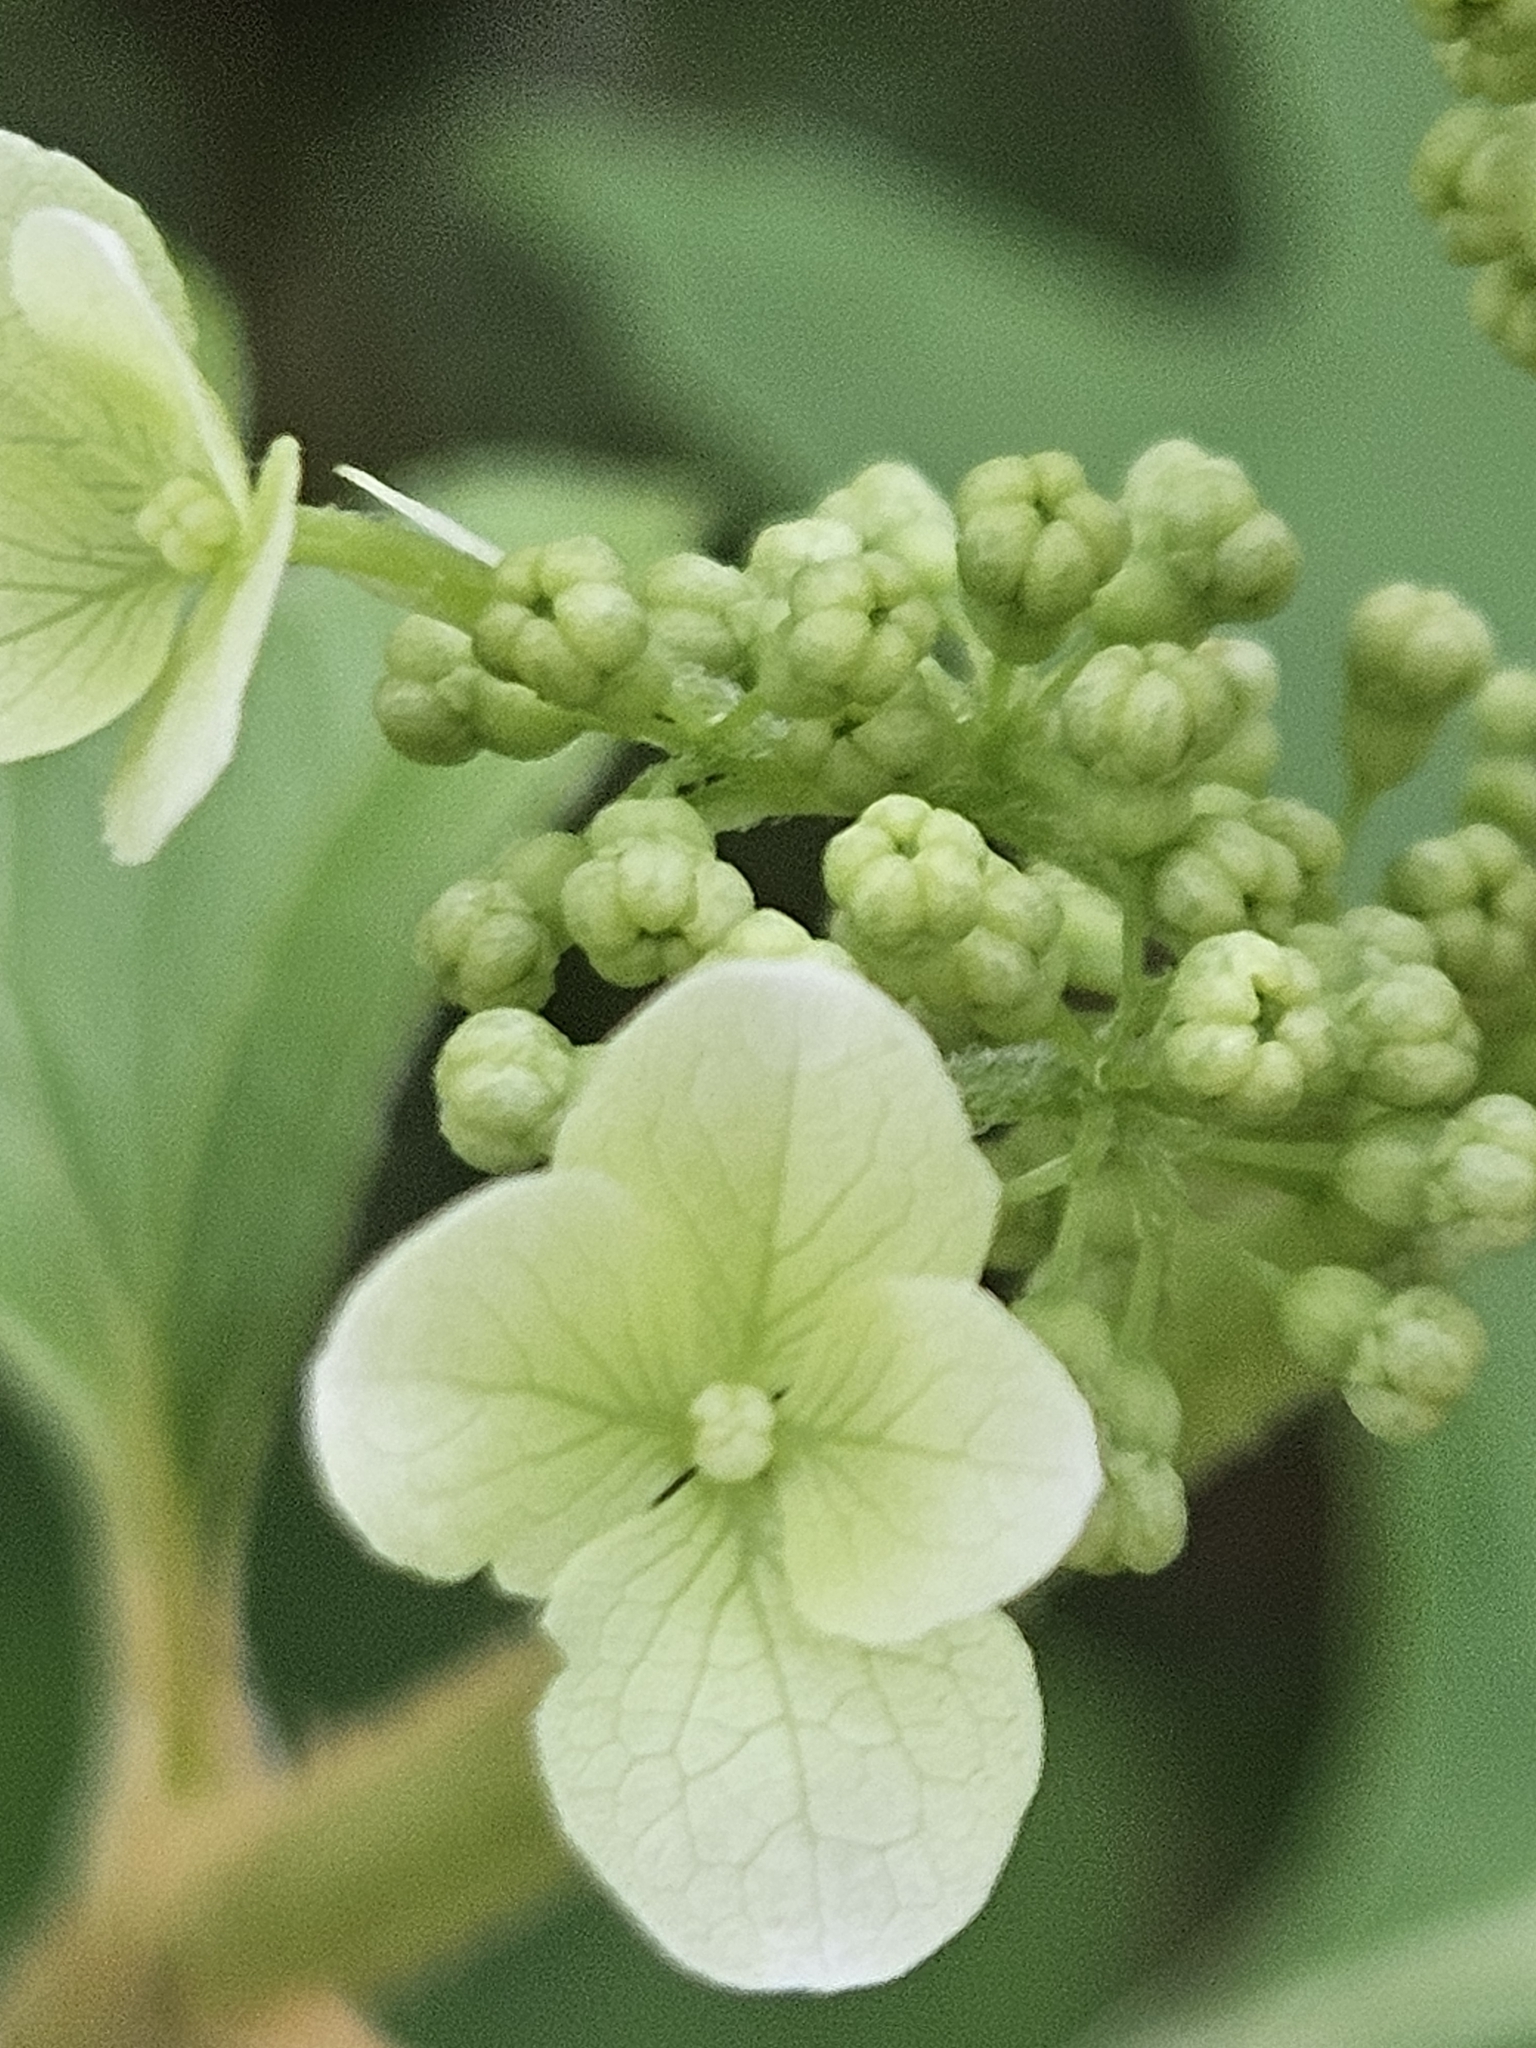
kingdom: Plantae
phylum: Tracheophyta
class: Magnoliopsida
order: Cornales
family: Hydrangeaceae
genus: Hydrangea
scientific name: Hydrangea quercifolia
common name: Oak-leaf hydrangea
